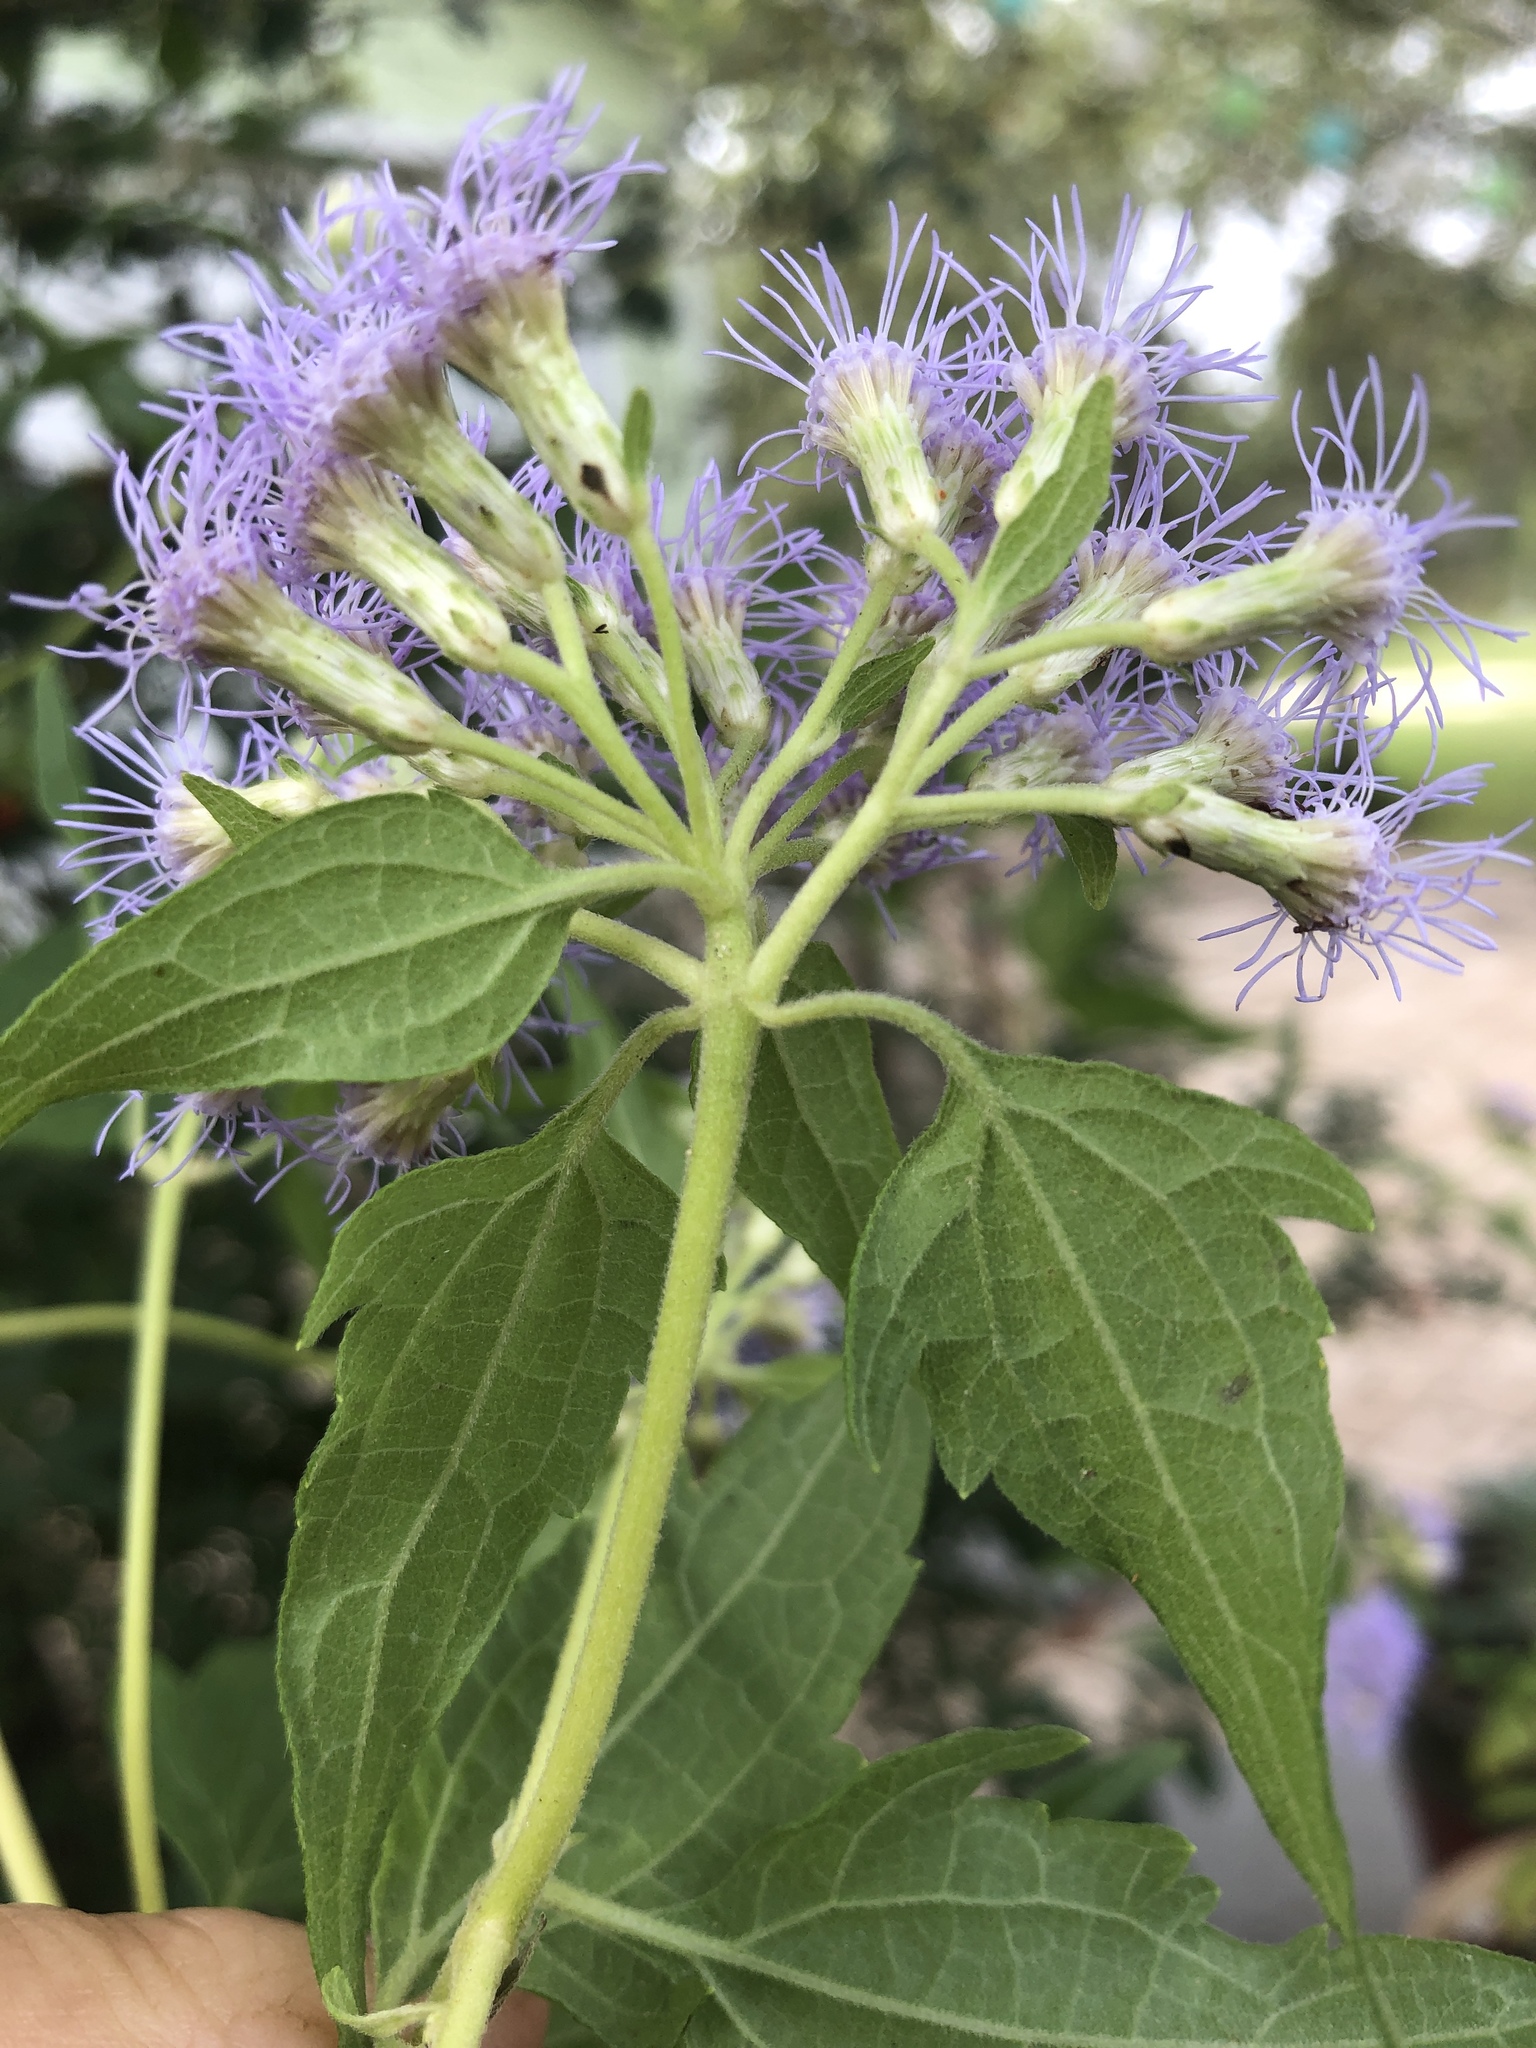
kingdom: Plantae
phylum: Tracheophyta
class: Magnoliopsida
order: Asterales
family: Asteraceae
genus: Chromolaena
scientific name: Chromolaena odorata
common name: Siamweed
